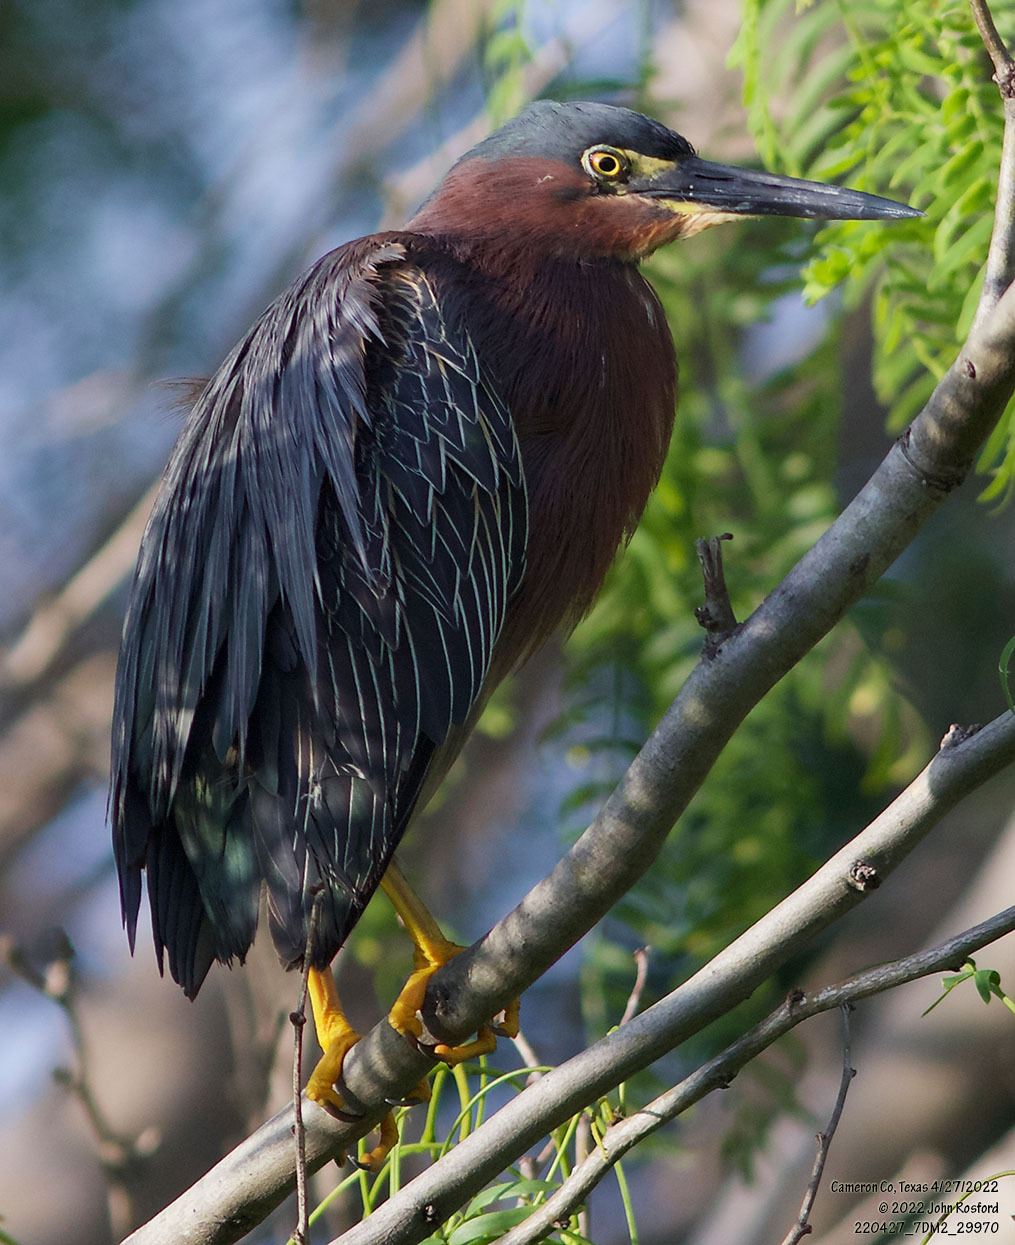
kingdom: Animalia
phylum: Chordata
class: Aves
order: Pelecaniformes
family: Ardeidae
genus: Butorides
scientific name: Butorides virescens
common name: Green heron
